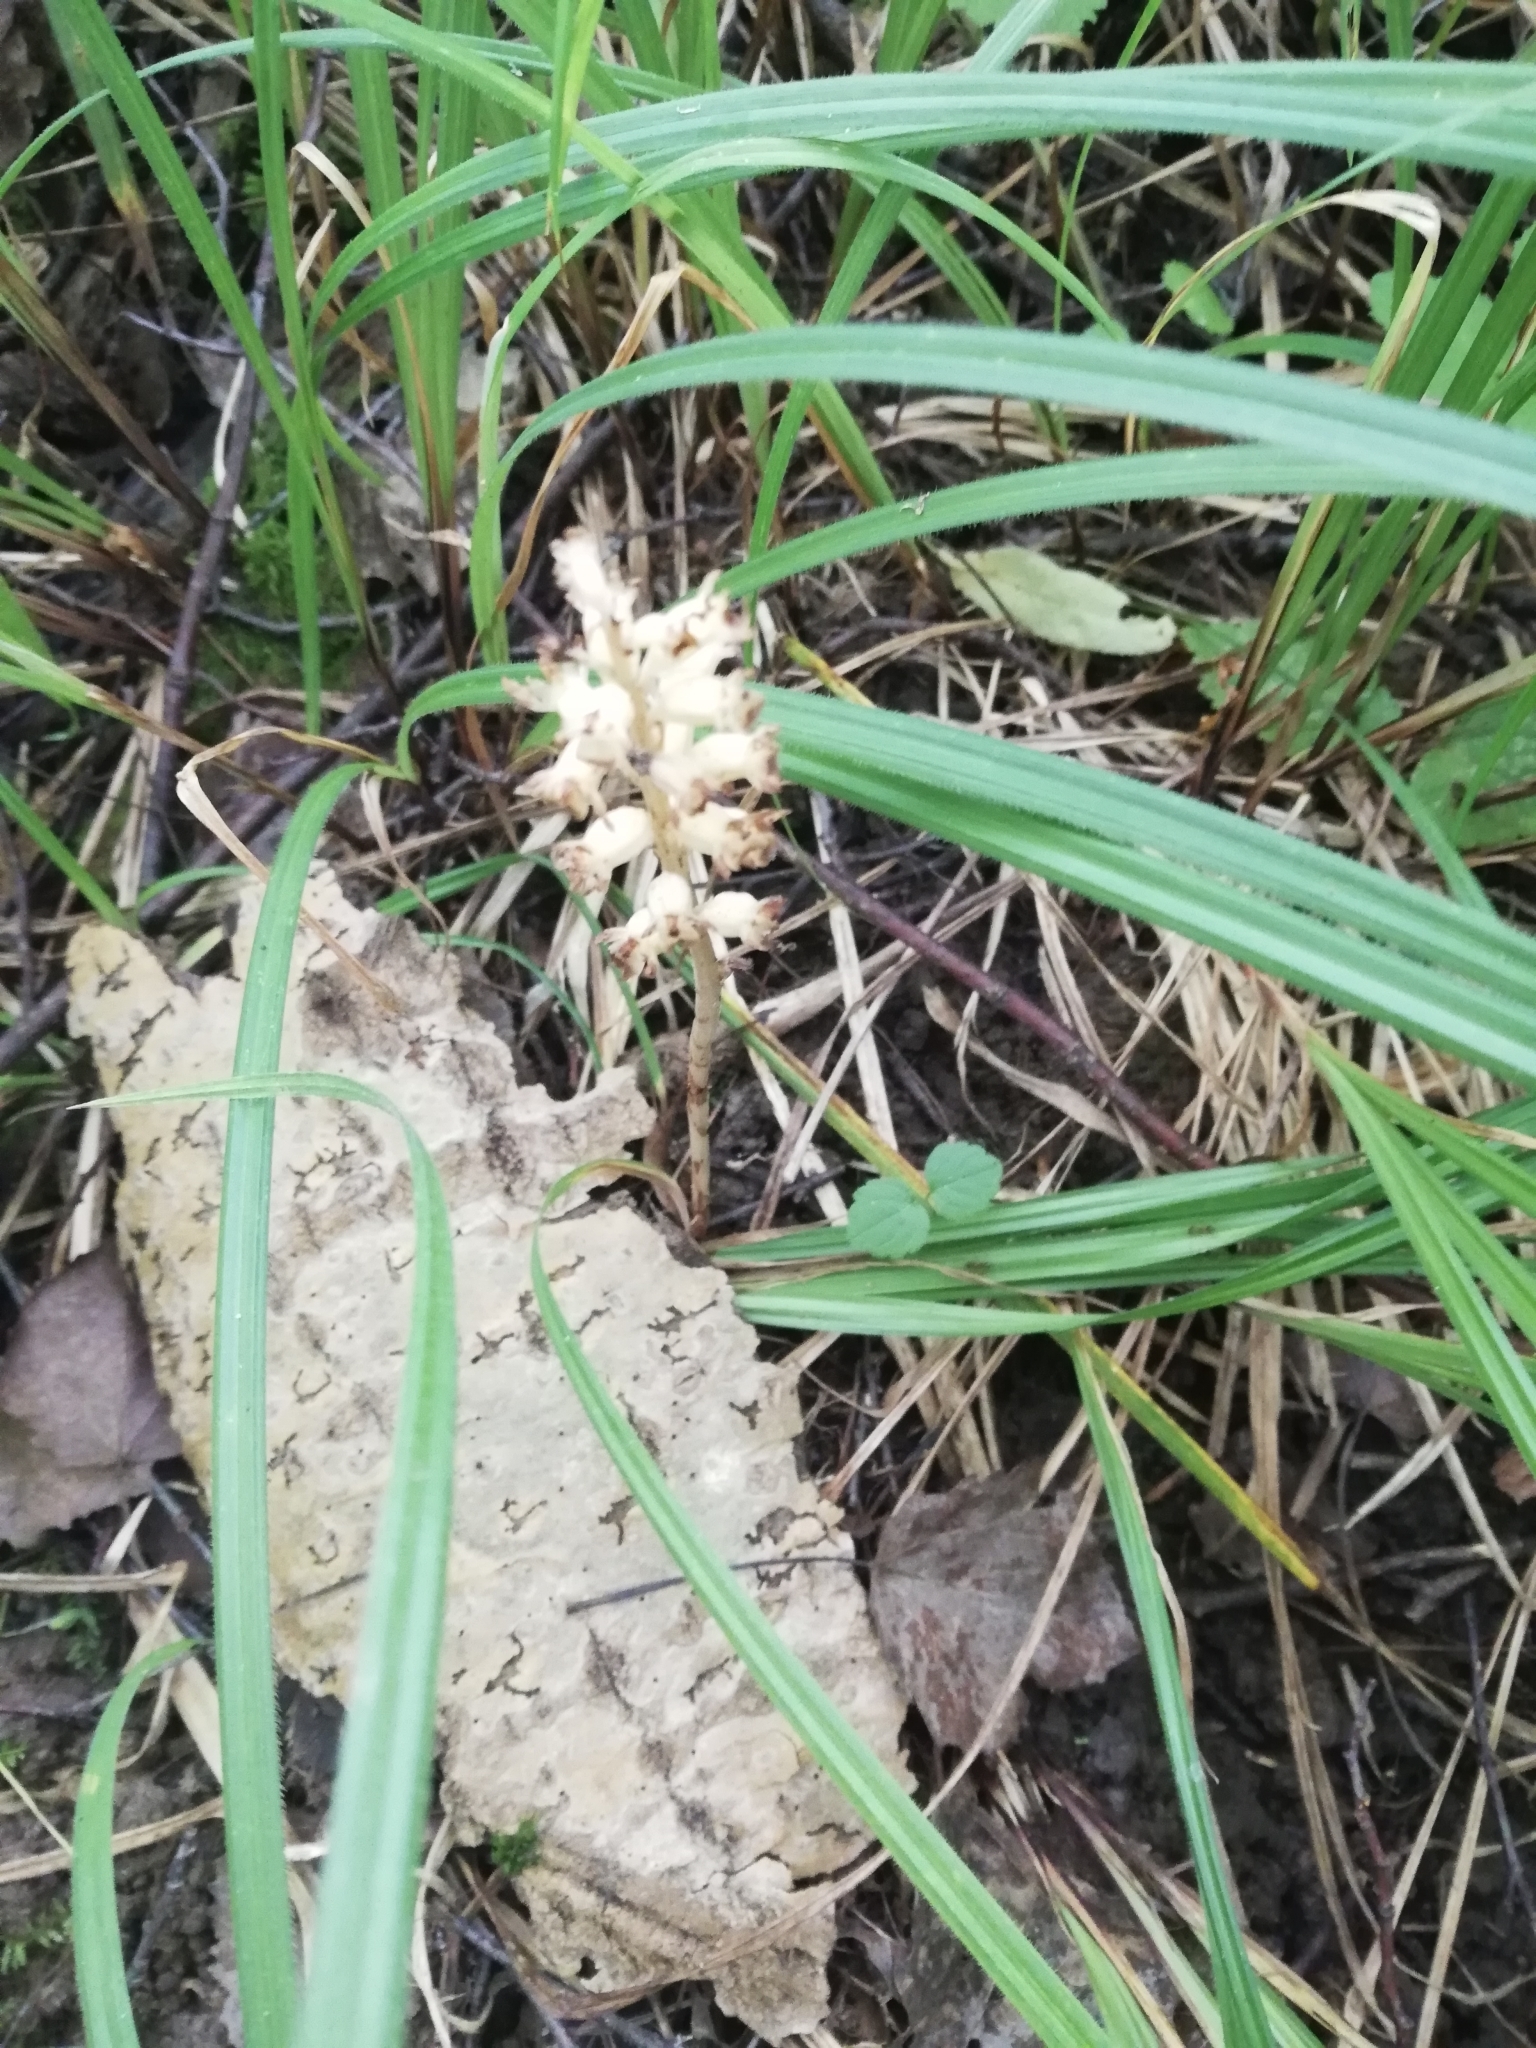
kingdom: Plantae
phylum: Tracheophyta
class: Liliopsida
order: Asparagales
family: Orchidaceae
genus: Neottia
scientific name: Neottia nidus-avis
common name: Bird's-nest orchid
